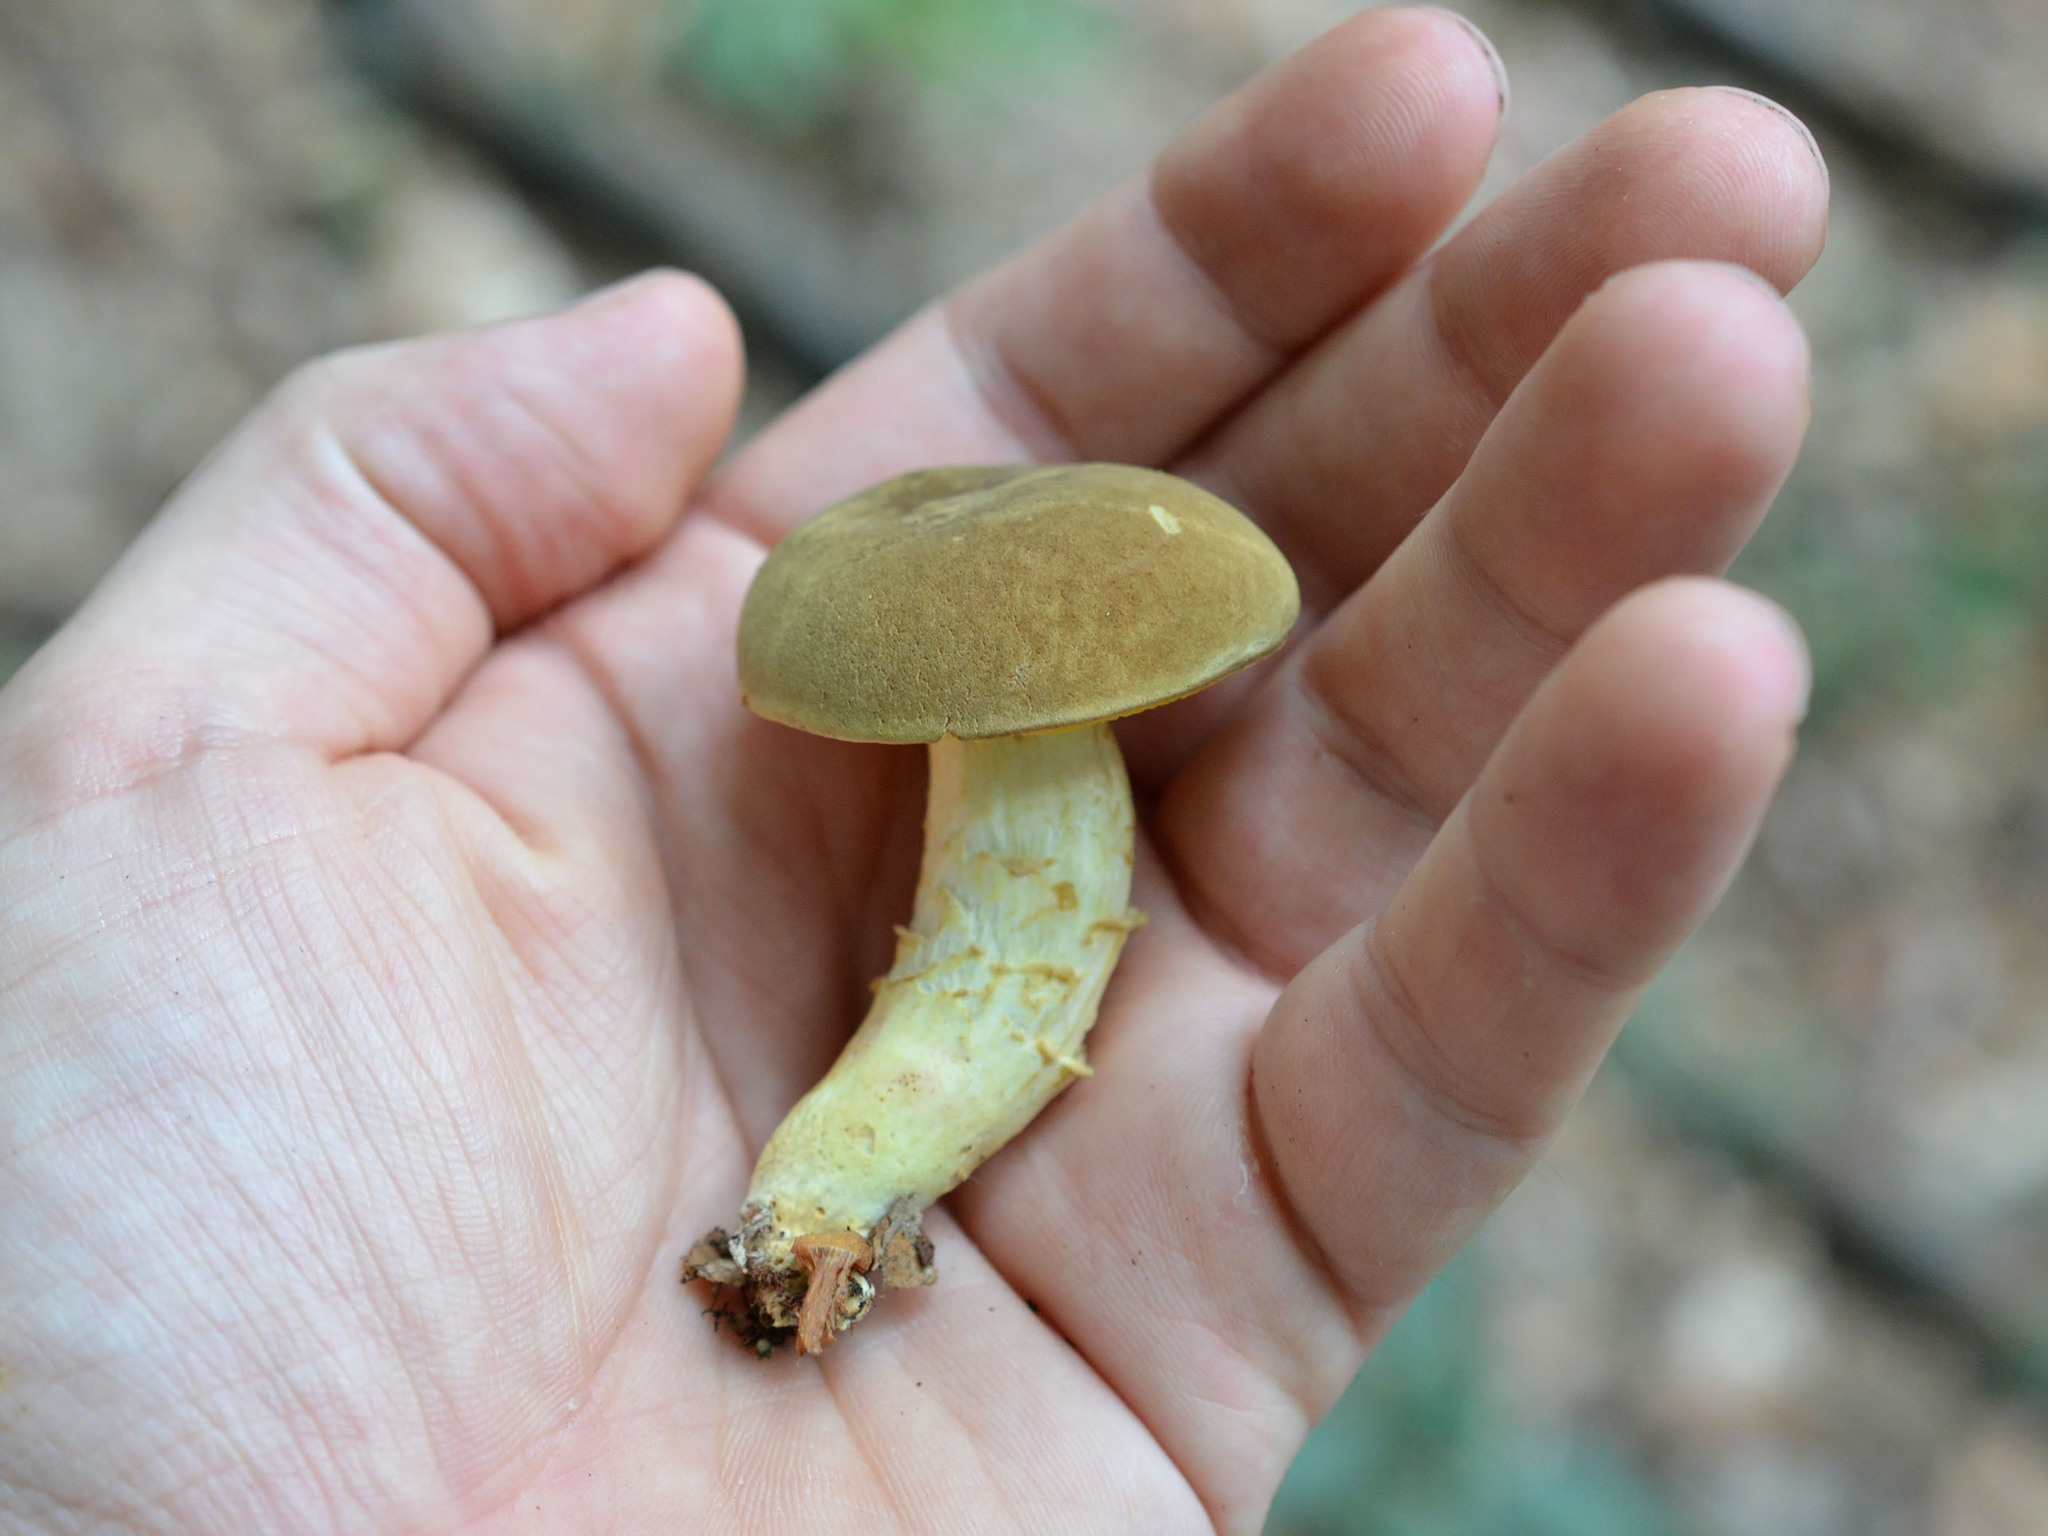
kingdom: Fungi
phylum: Basidiomycota
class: Agaricomycetes
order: Boletales
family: Boletaceae
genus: Xerocomus
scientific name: Xerocomus subtomentosus
